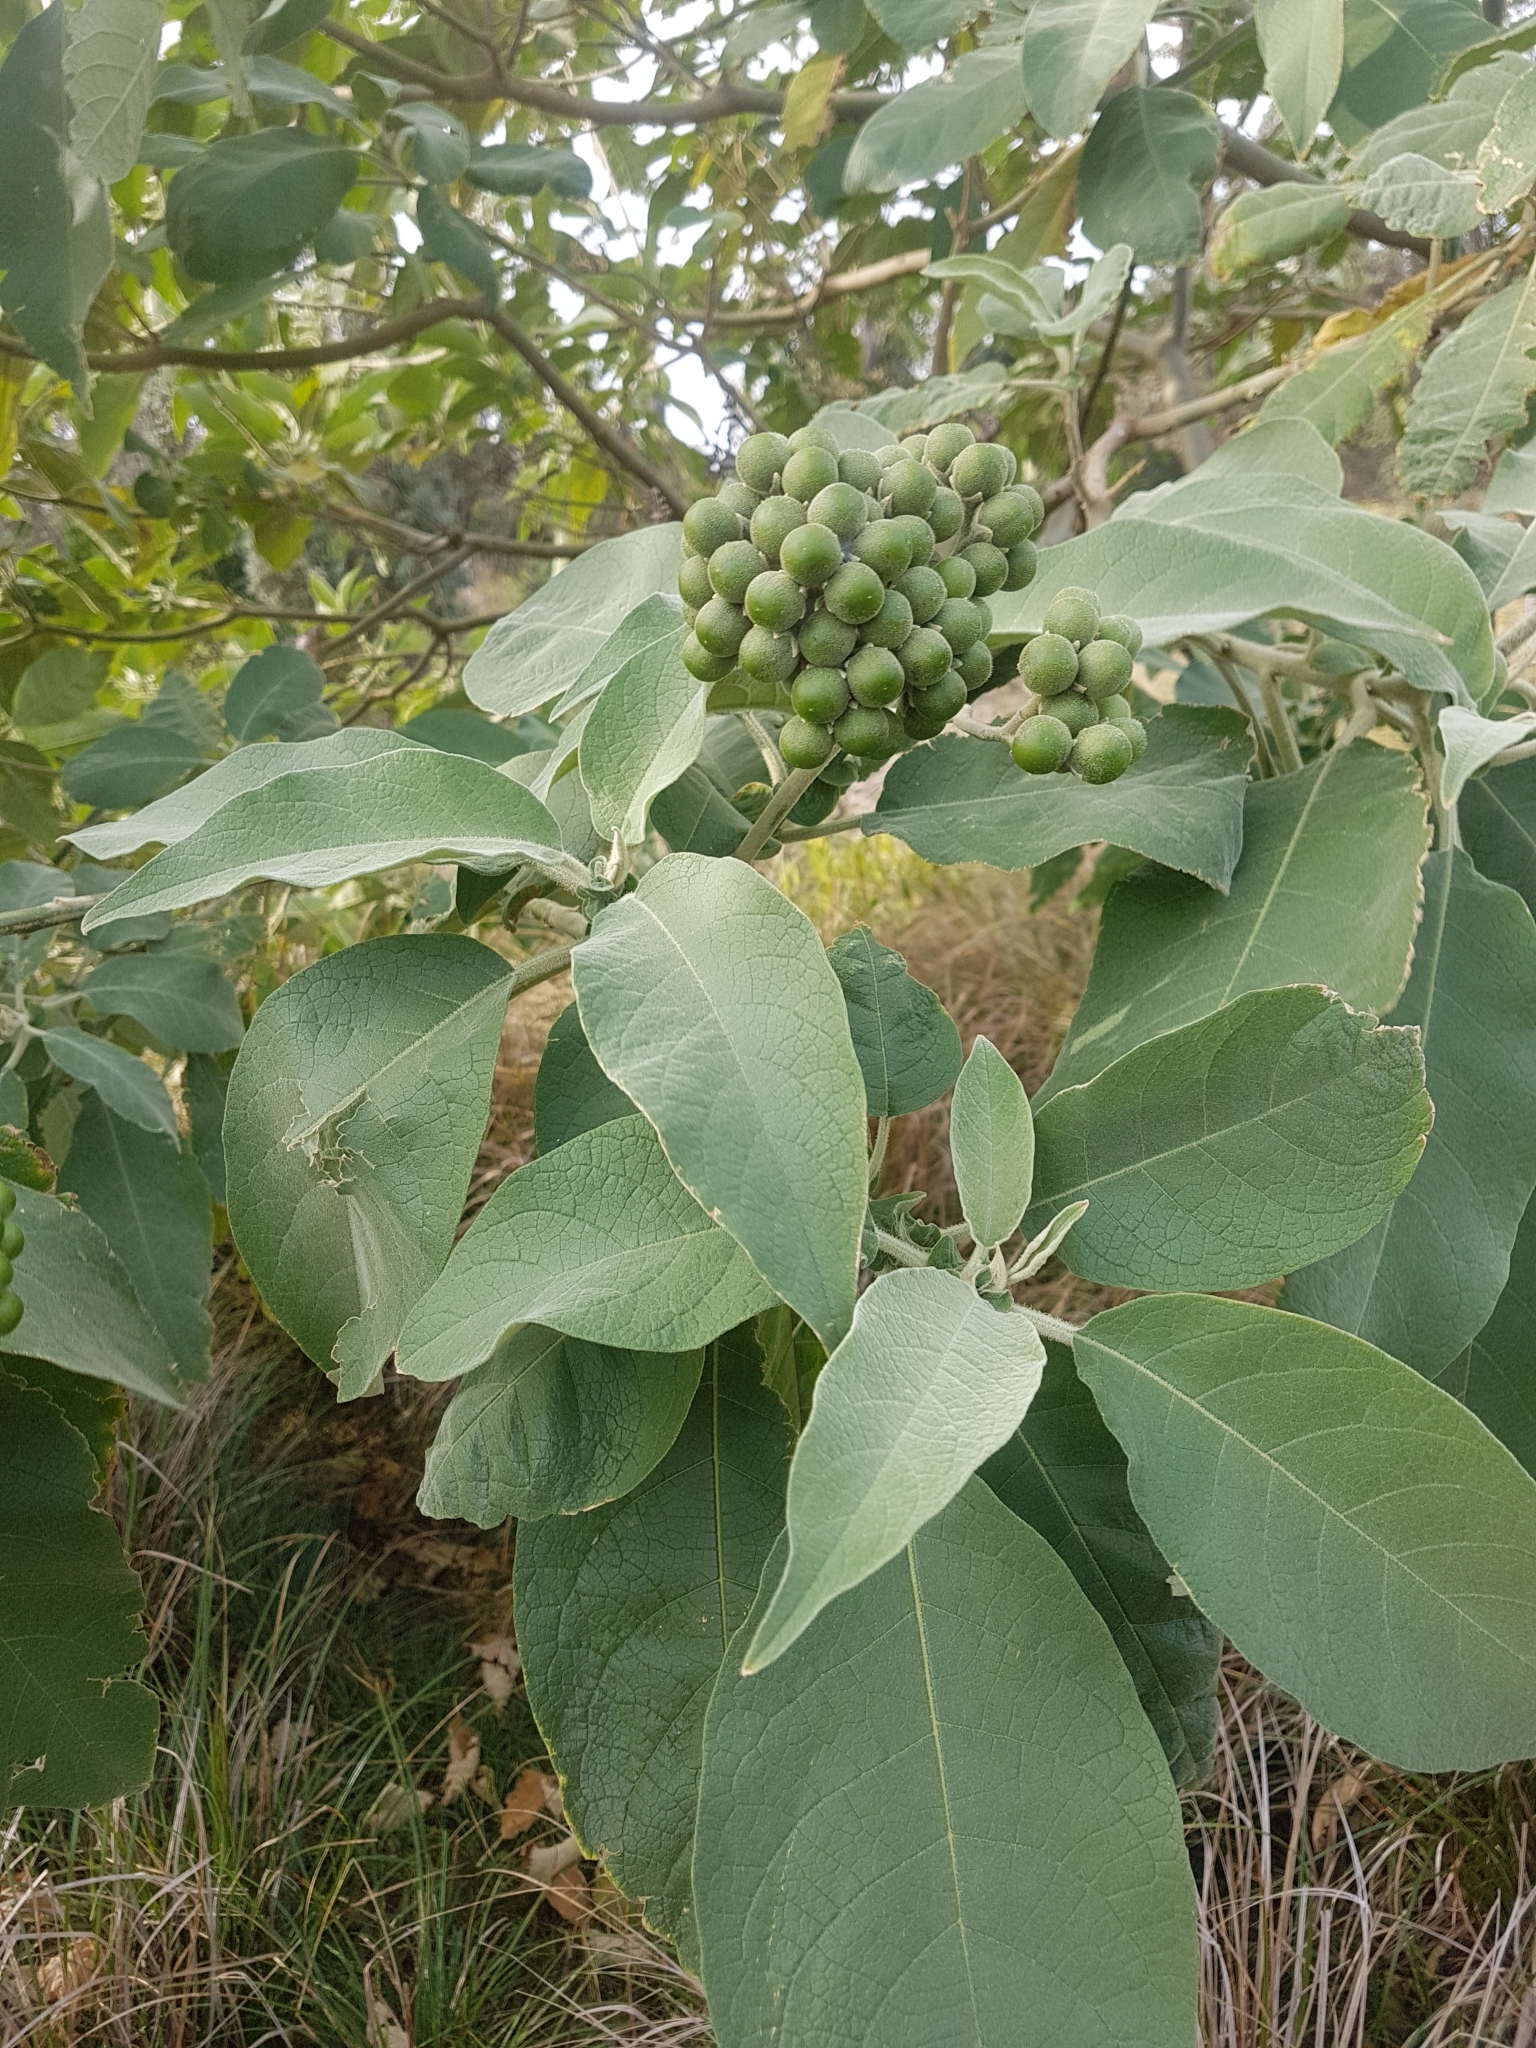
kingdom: Plantae
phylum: Tracheophyta
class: Magnoliopsida
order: Solanales
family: Solanaceae
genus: Solanum
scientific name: Solanum mauritianum
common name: Earleaf nightshade
